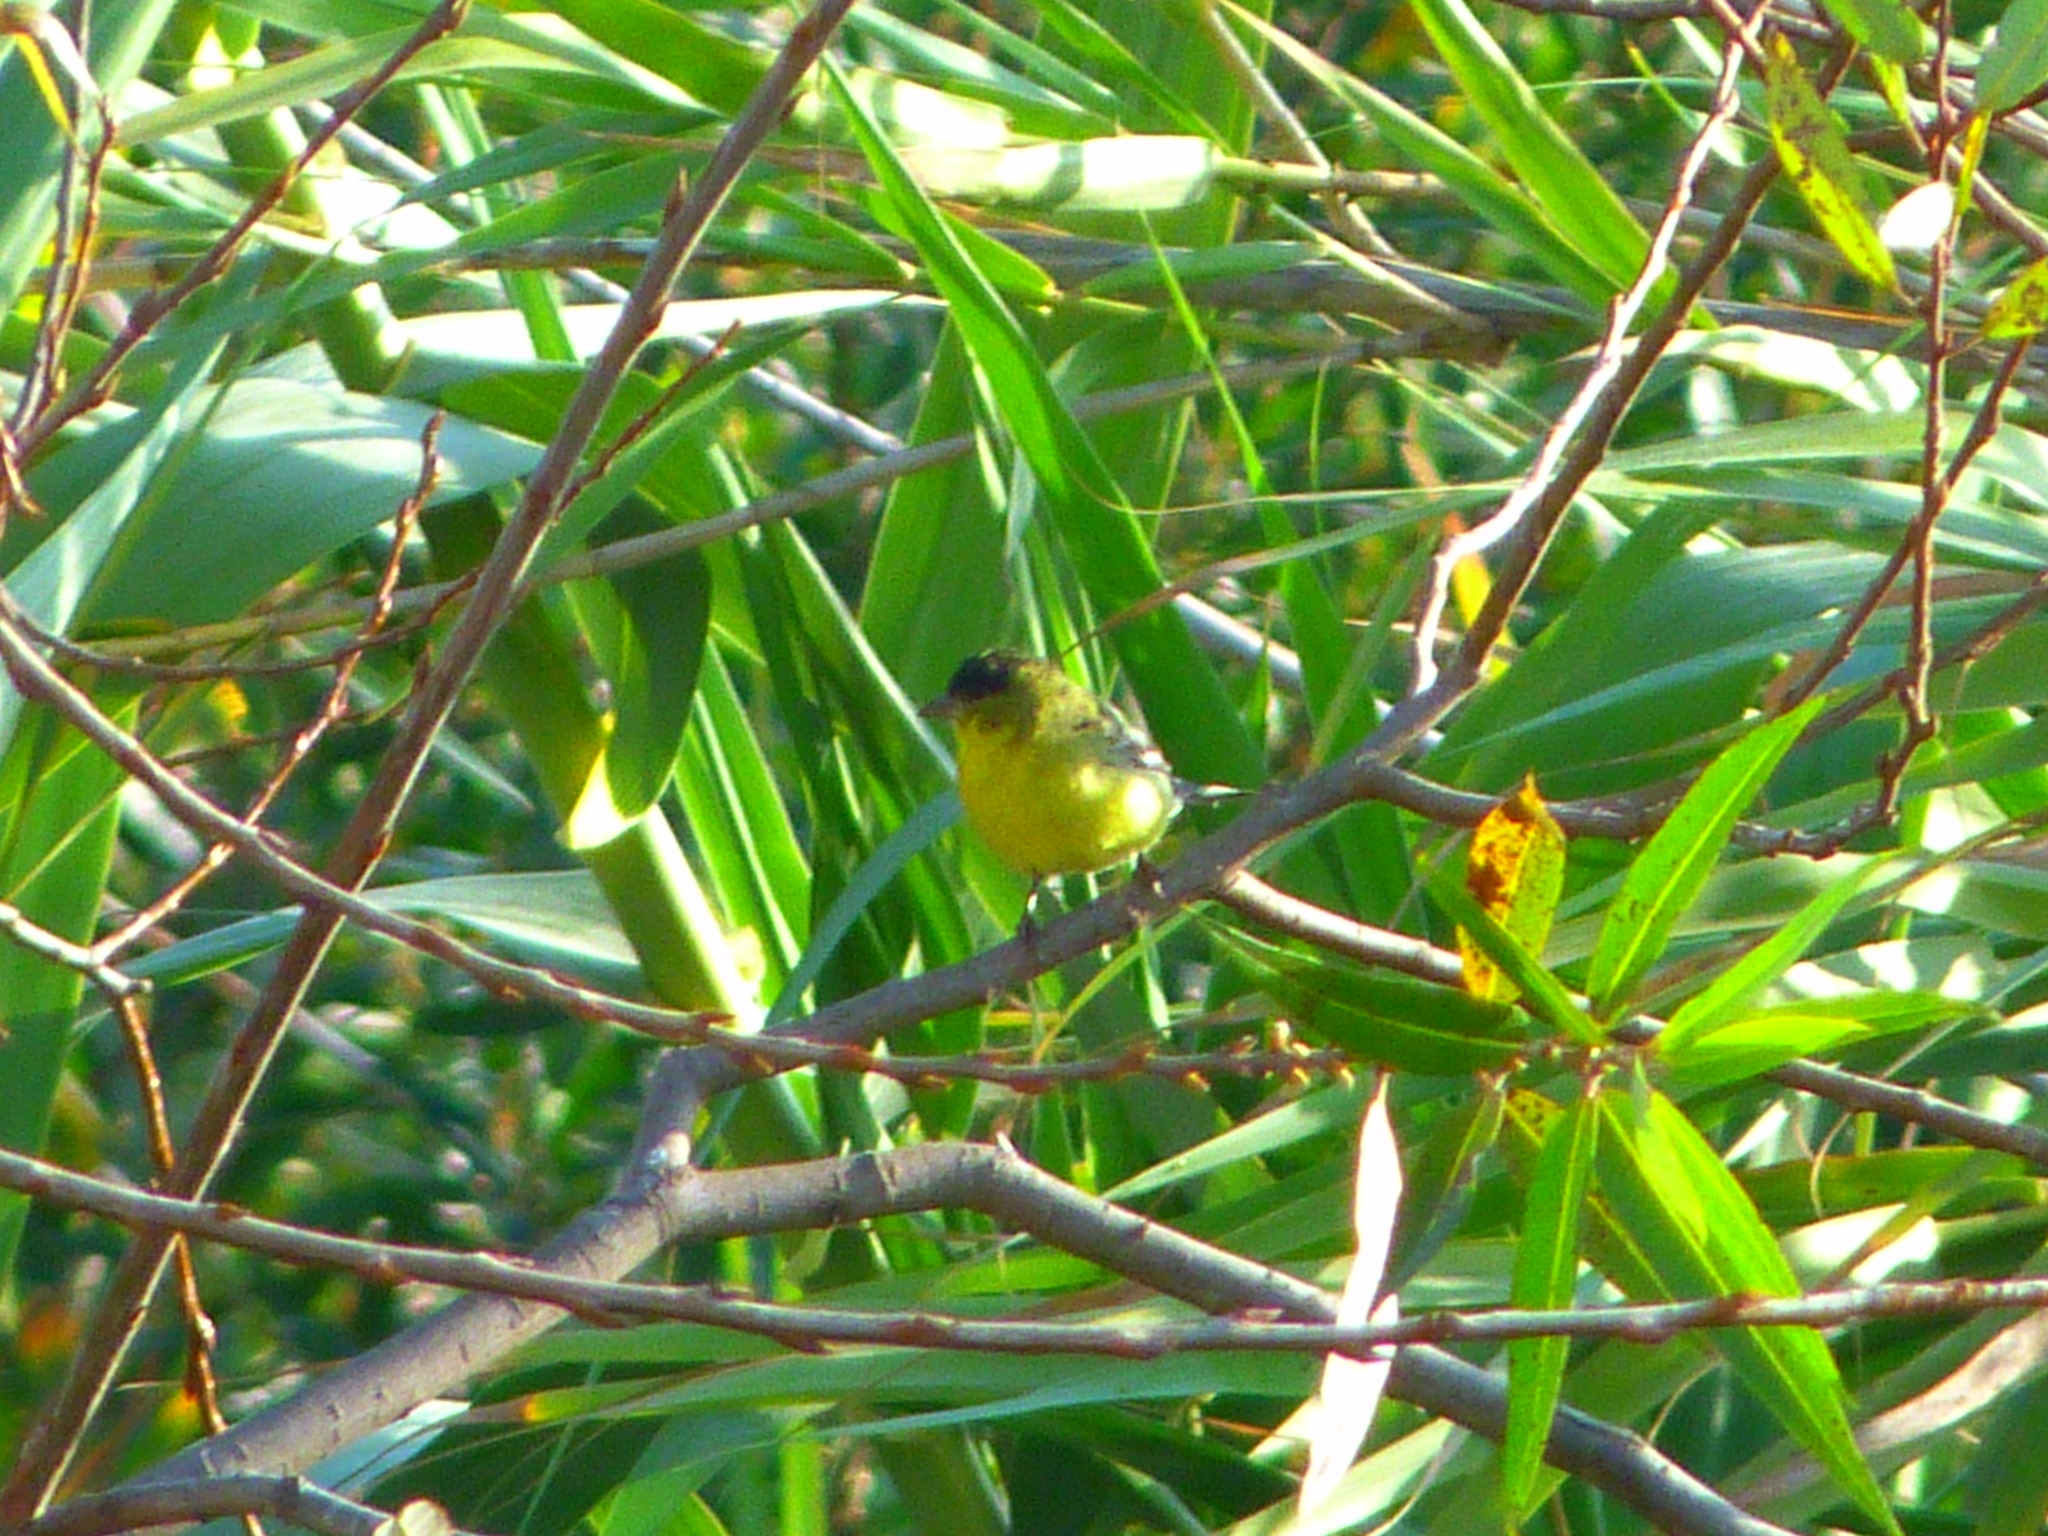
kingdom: Animalia
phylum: Chordata
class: Aves
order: Passeriformes
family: Fringillidae
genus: Spinus
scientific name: Spinus psaltria
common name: Lesser goldfinch
